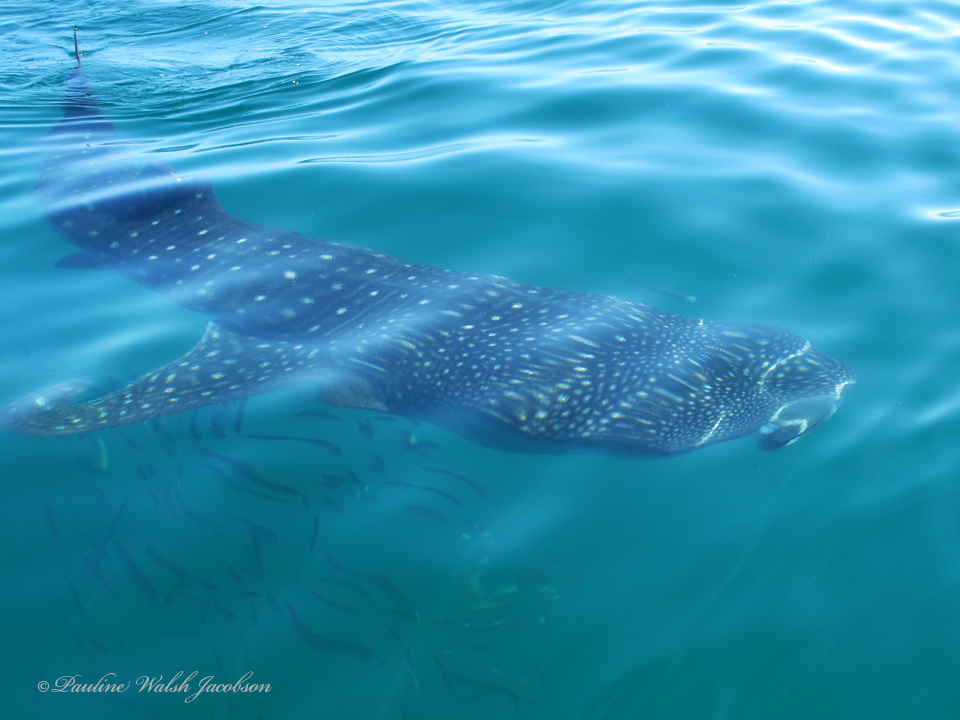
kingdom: Animalia
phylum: Chordata
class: Elasmobranchii
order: Orectolobiformes
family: Rhincodontidae
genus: Rhincodon
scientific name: Rhincodon typus
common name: Whale shark
